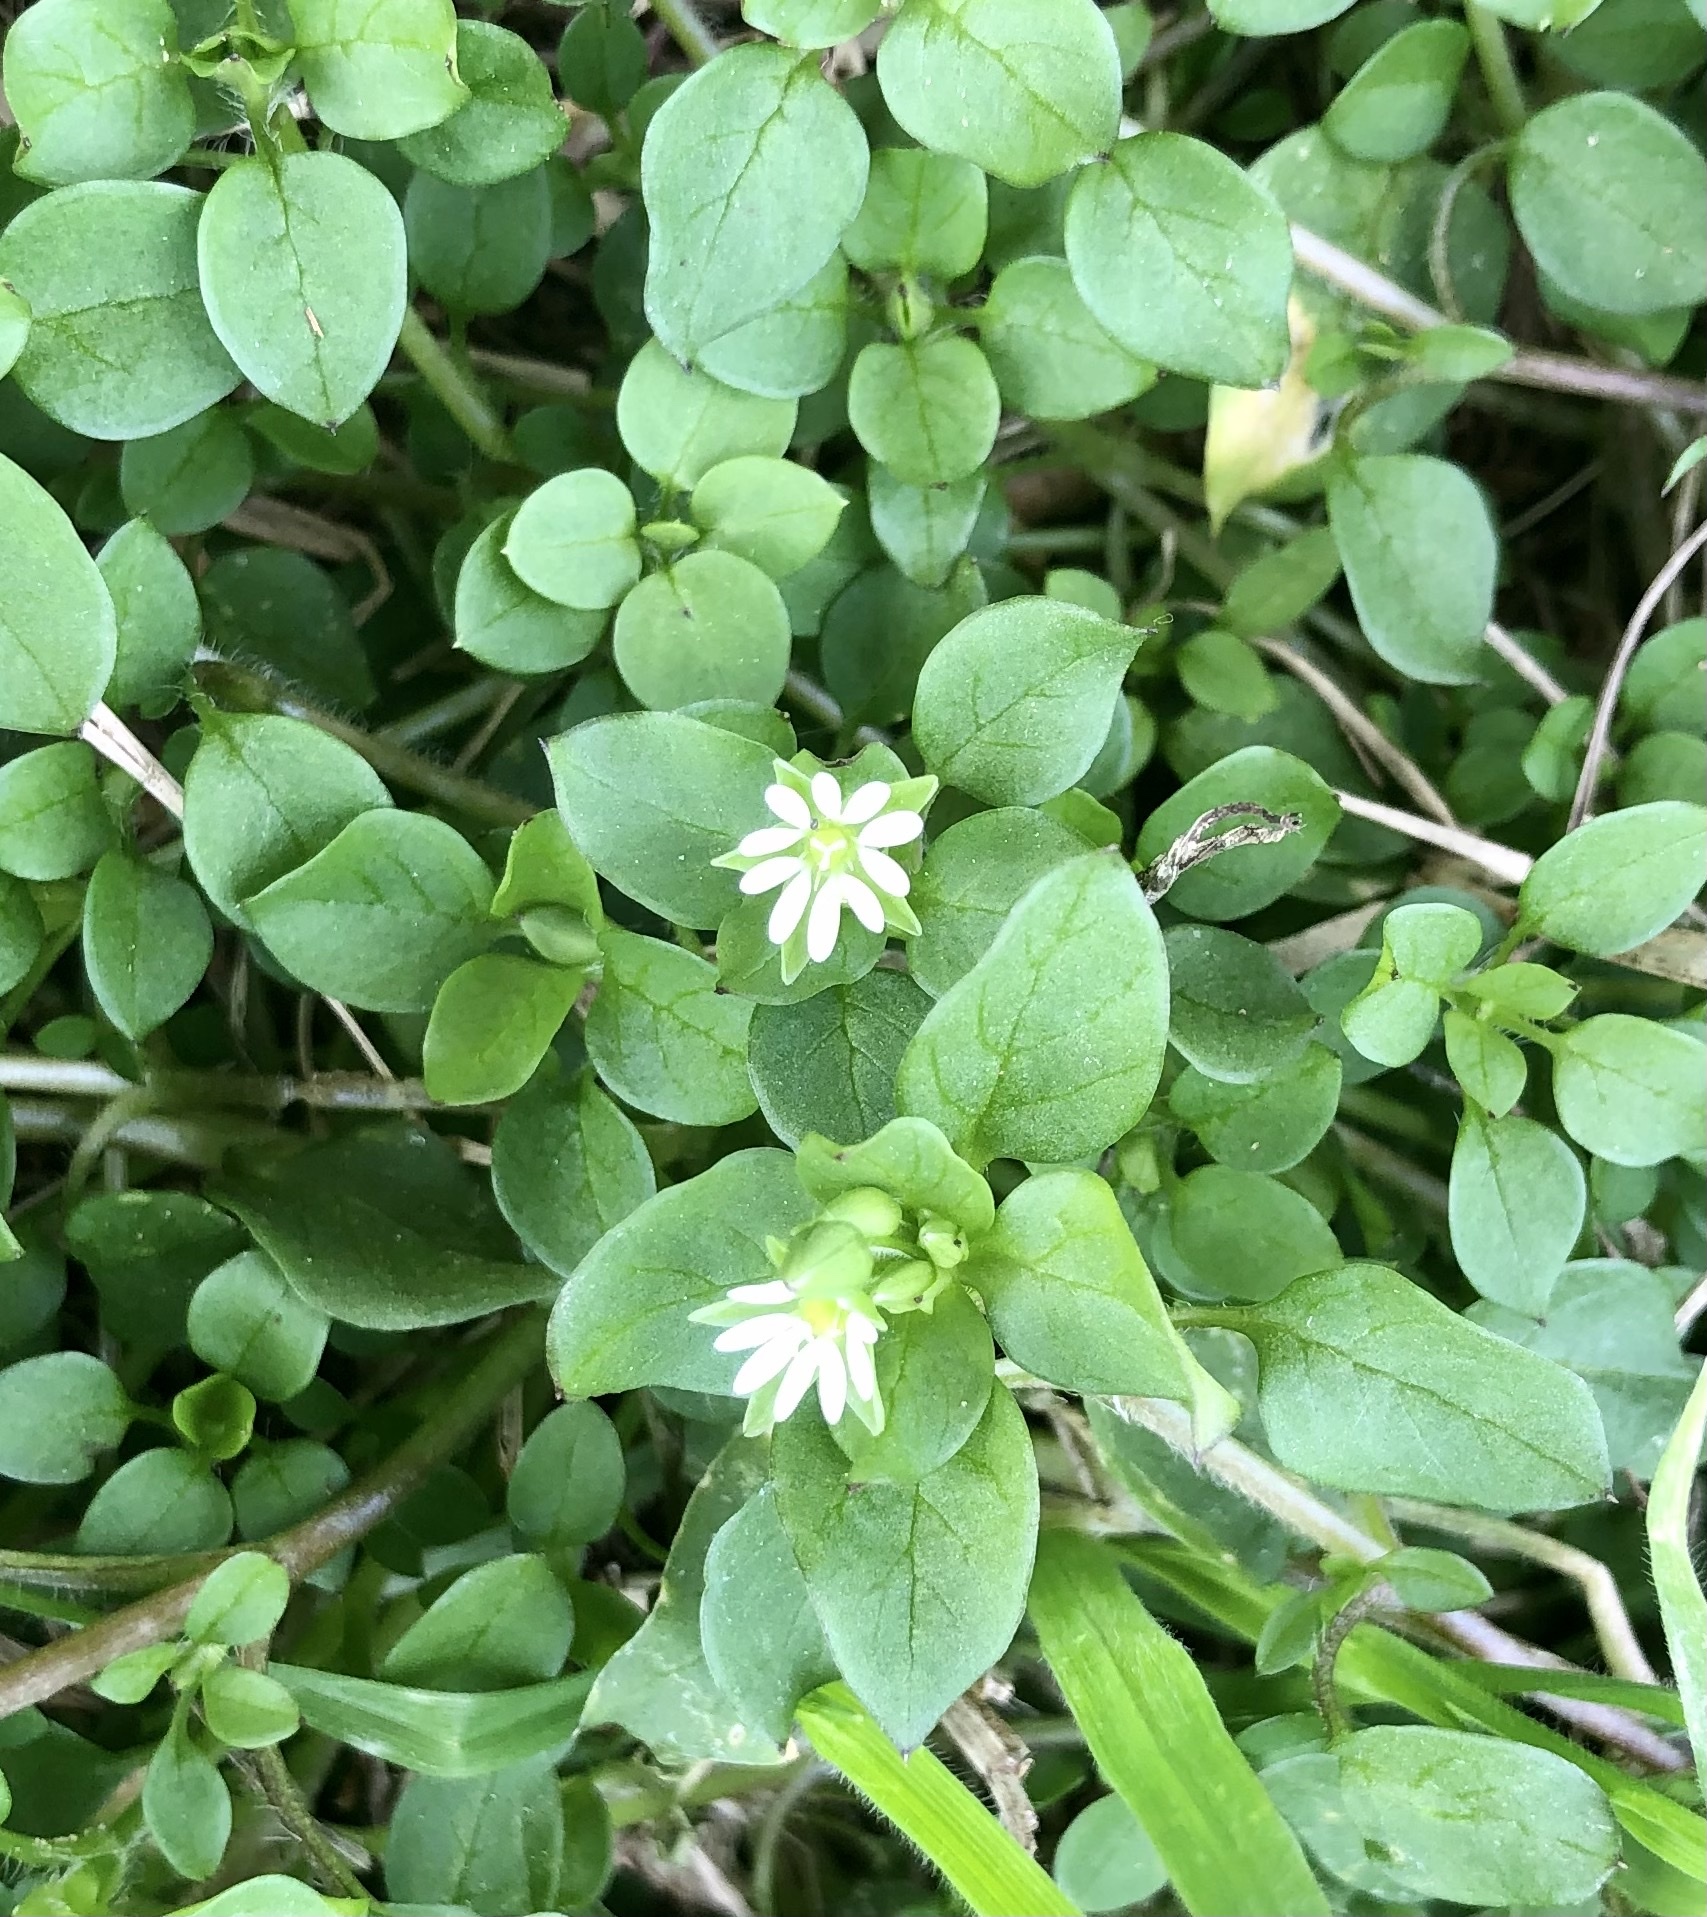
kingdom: Plantae
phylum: Tracheophyta
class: Magnoliopsida
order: Caryophyllales
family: Caryophyllaceae
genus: Stellaria
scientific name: Stellaria media
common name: Common chickweed
